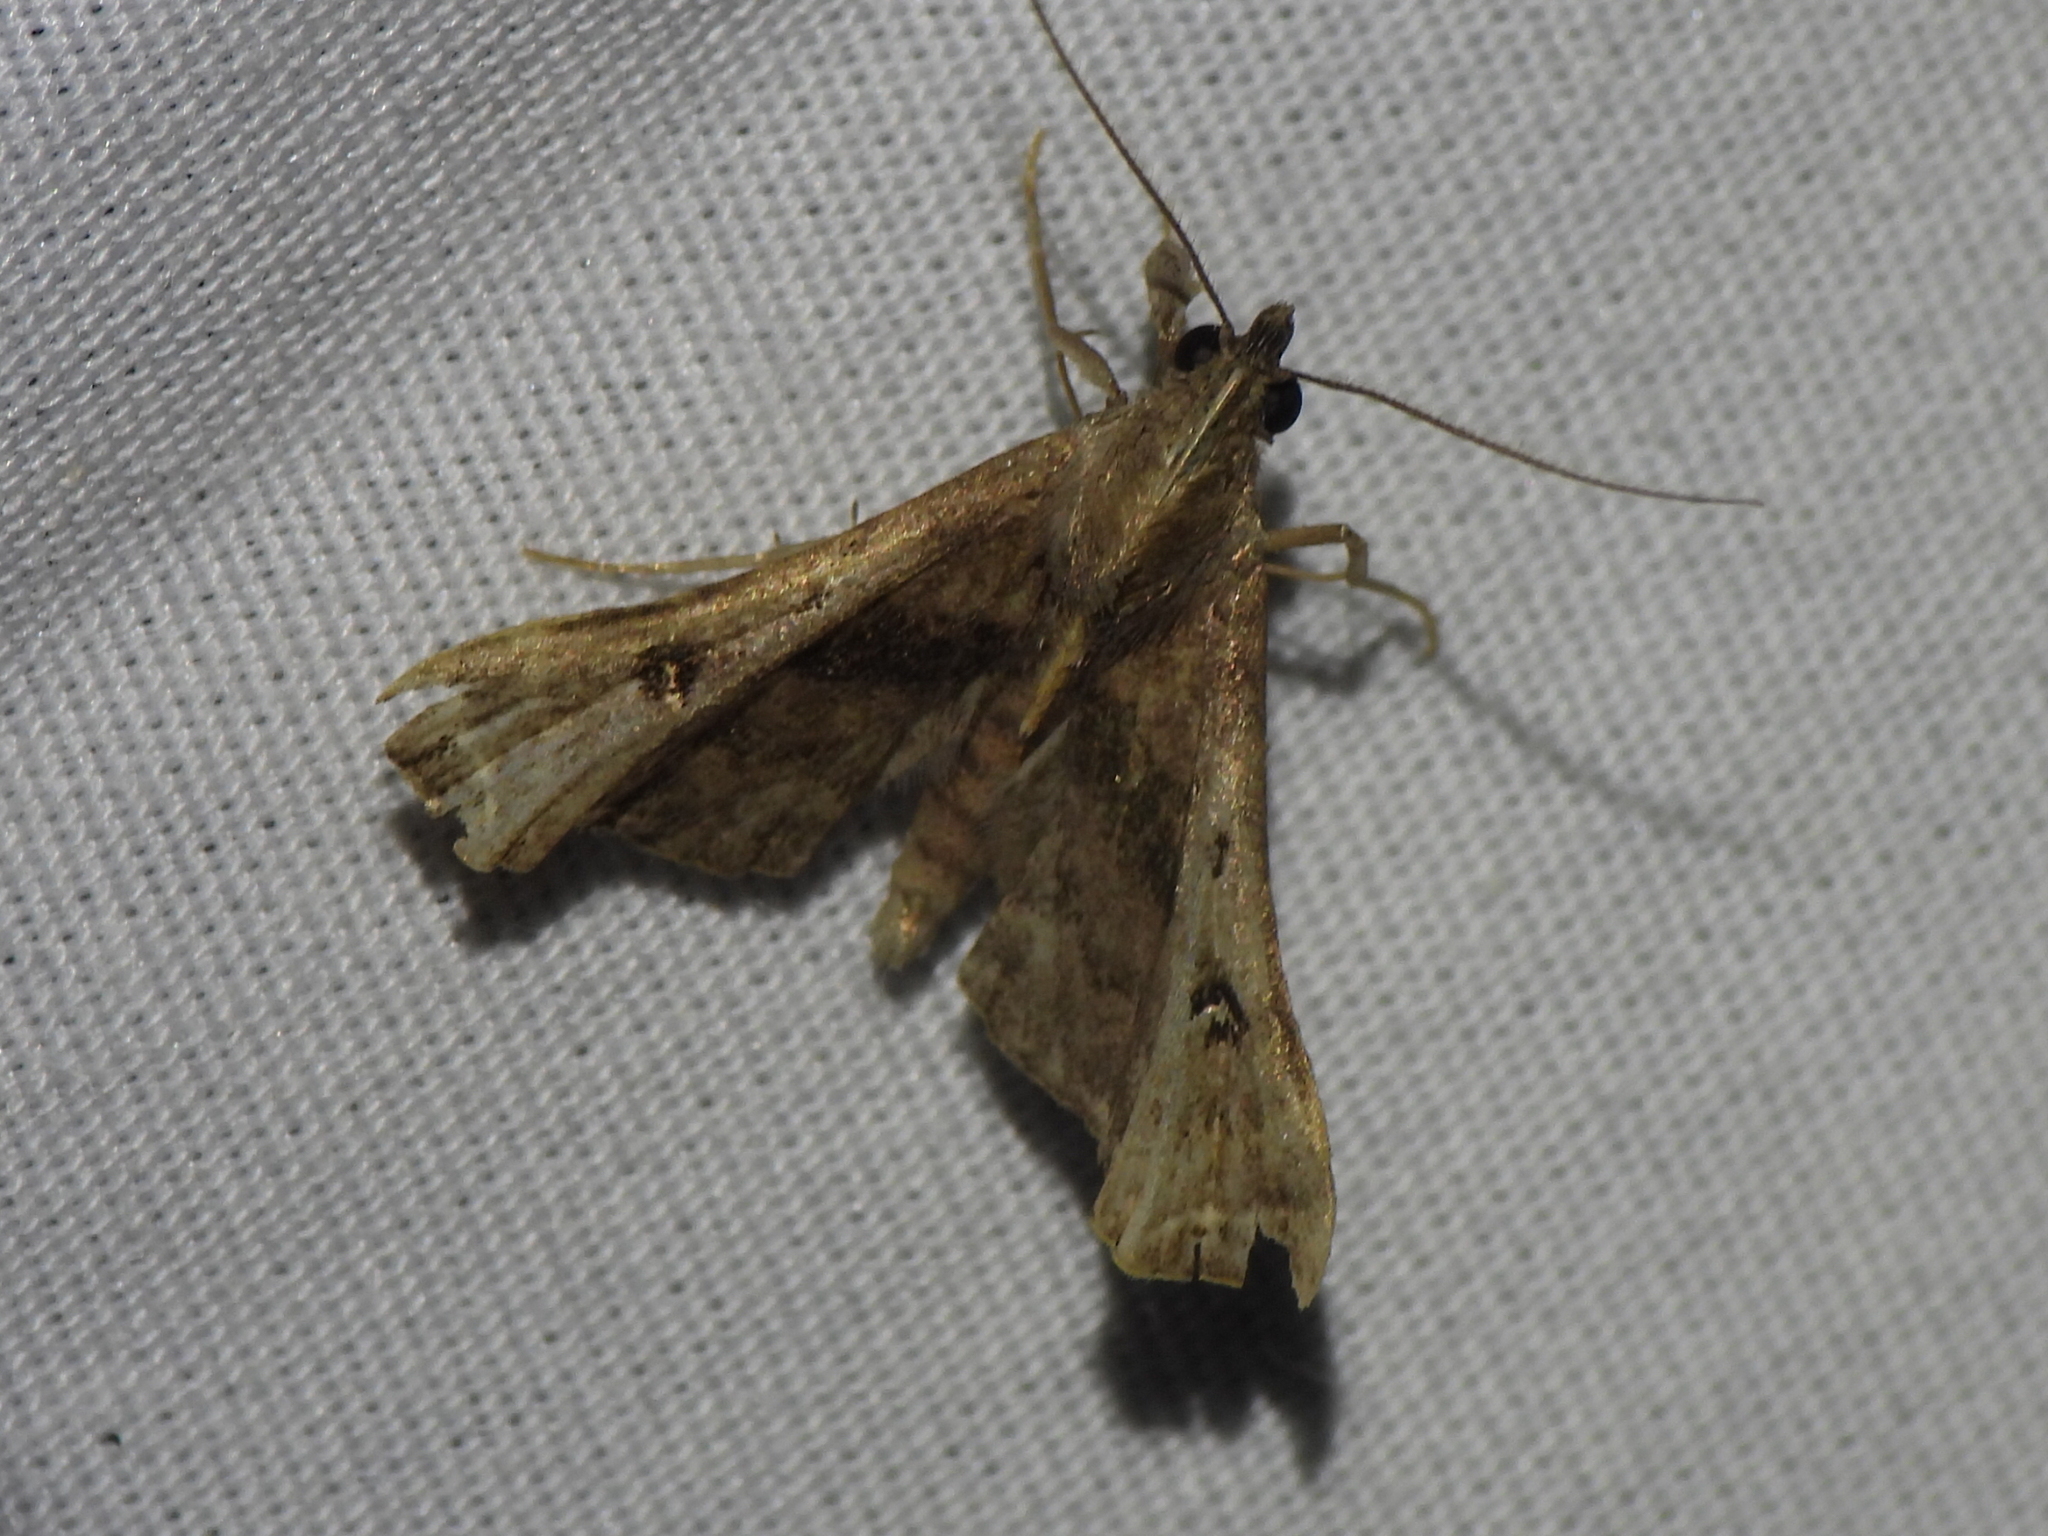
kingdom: Animalia
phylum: Arthropoda
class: Insecta
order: Lepidoptera
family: Erebidae
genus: Palthis
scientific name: Palthis asopialis
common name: Faint-spotted palthis moth
